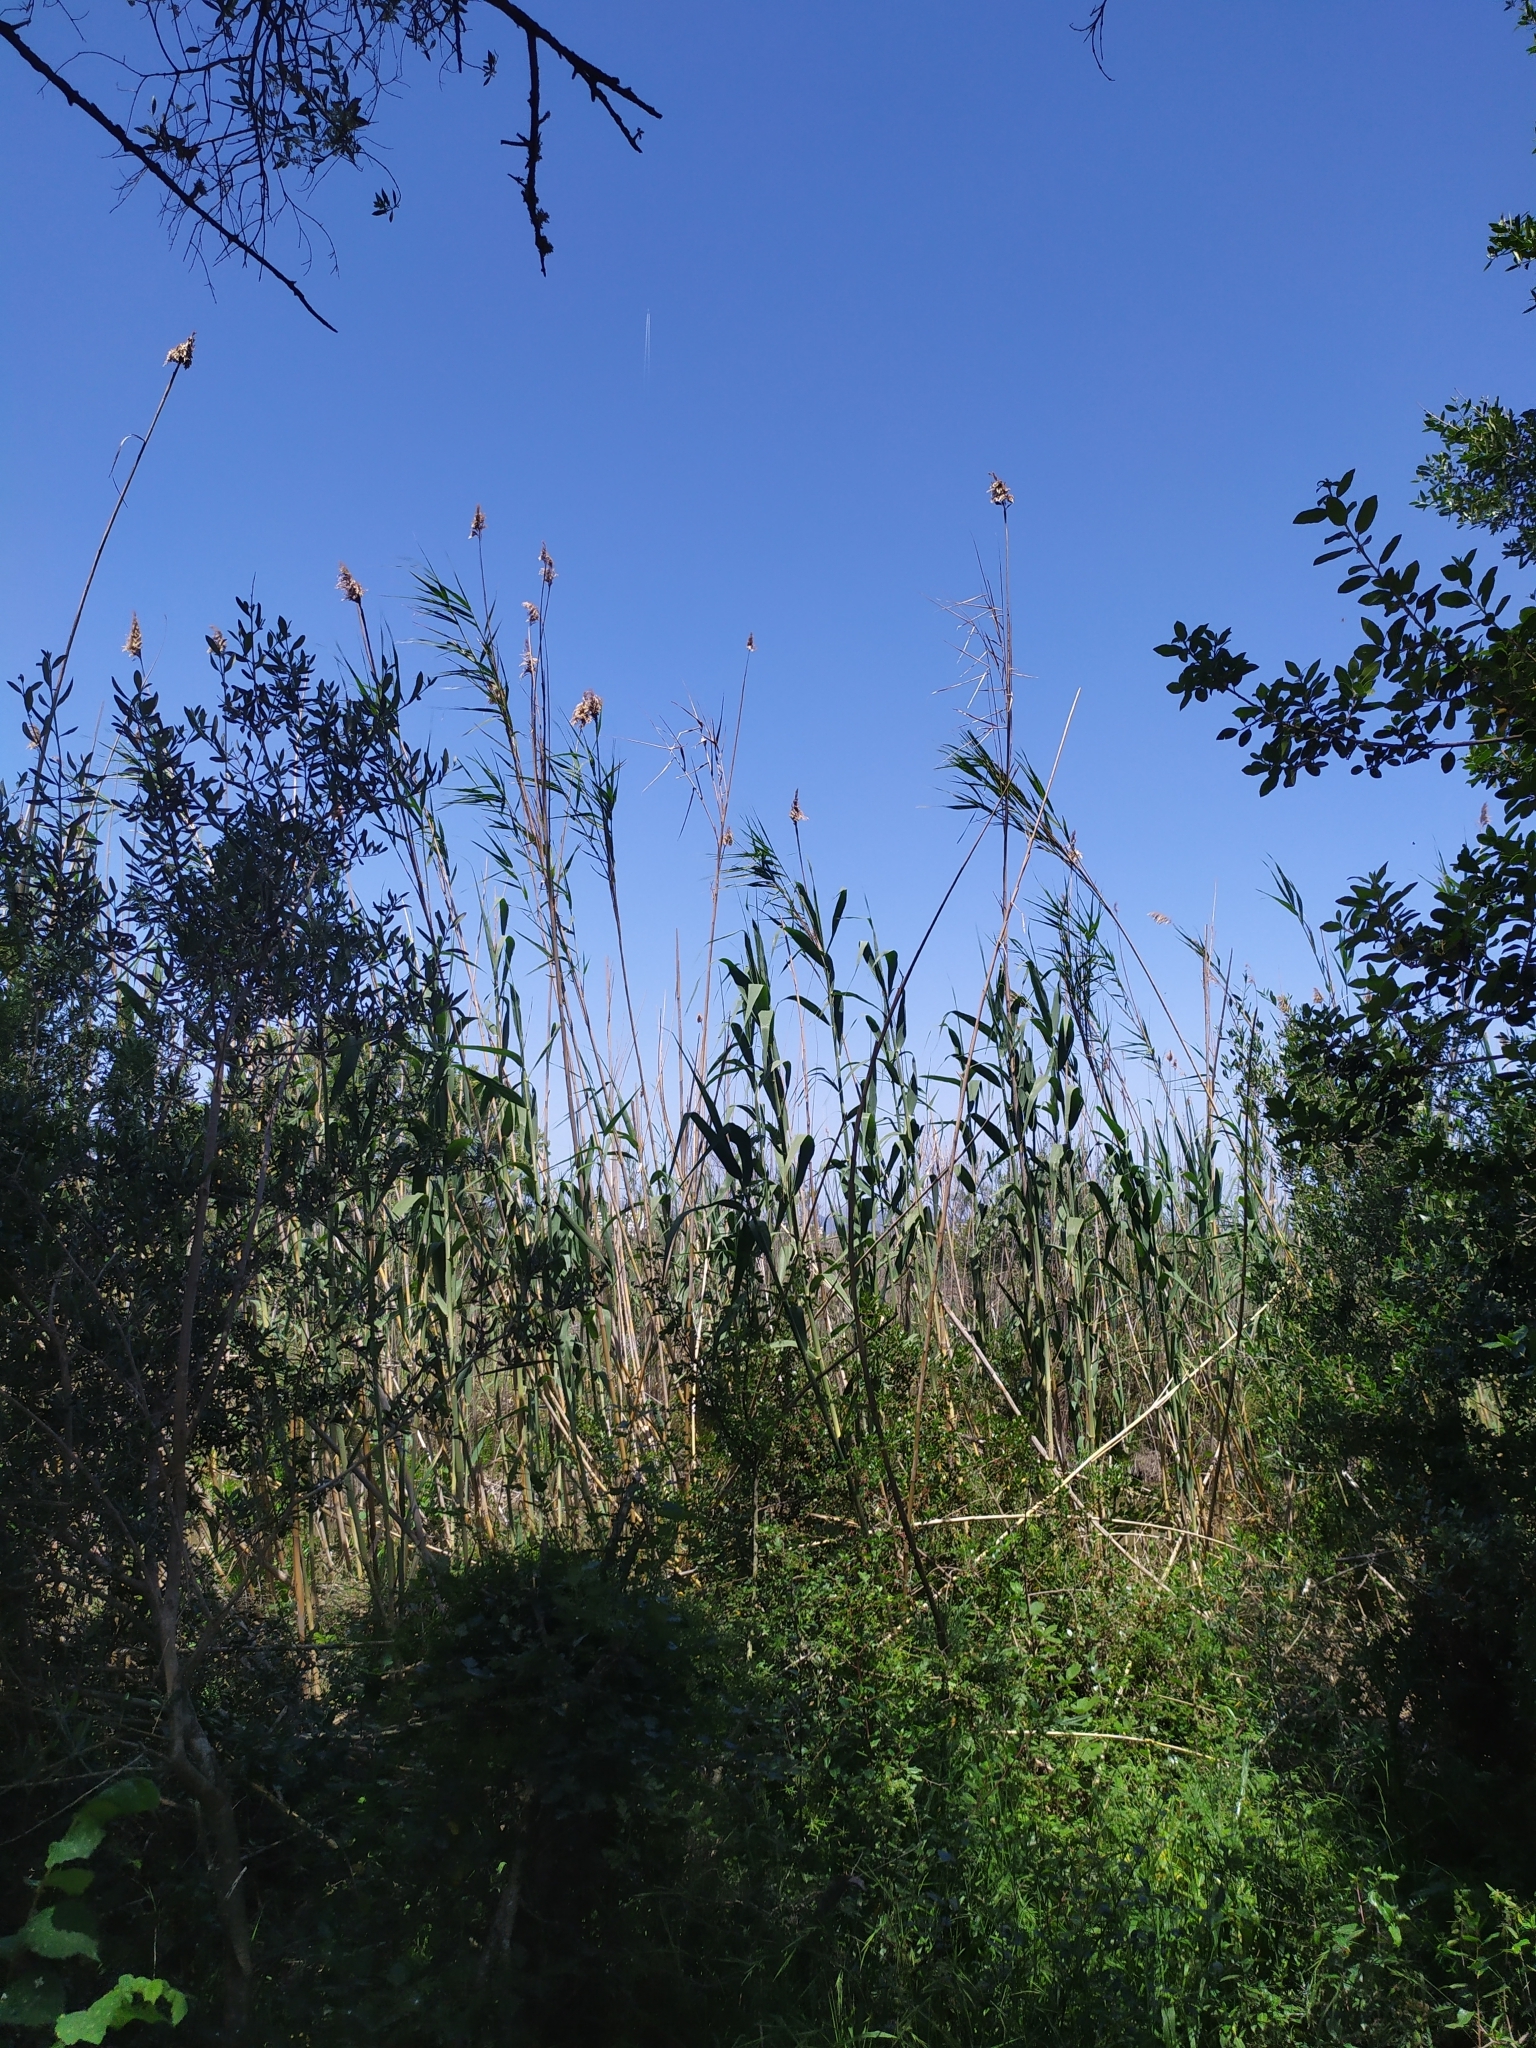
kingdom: Plantae
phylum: Tracheophyta
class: Liliopsida
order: Poales
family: Poaceae
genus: Phragmites
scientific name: Phragmites australis
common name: Common reed
